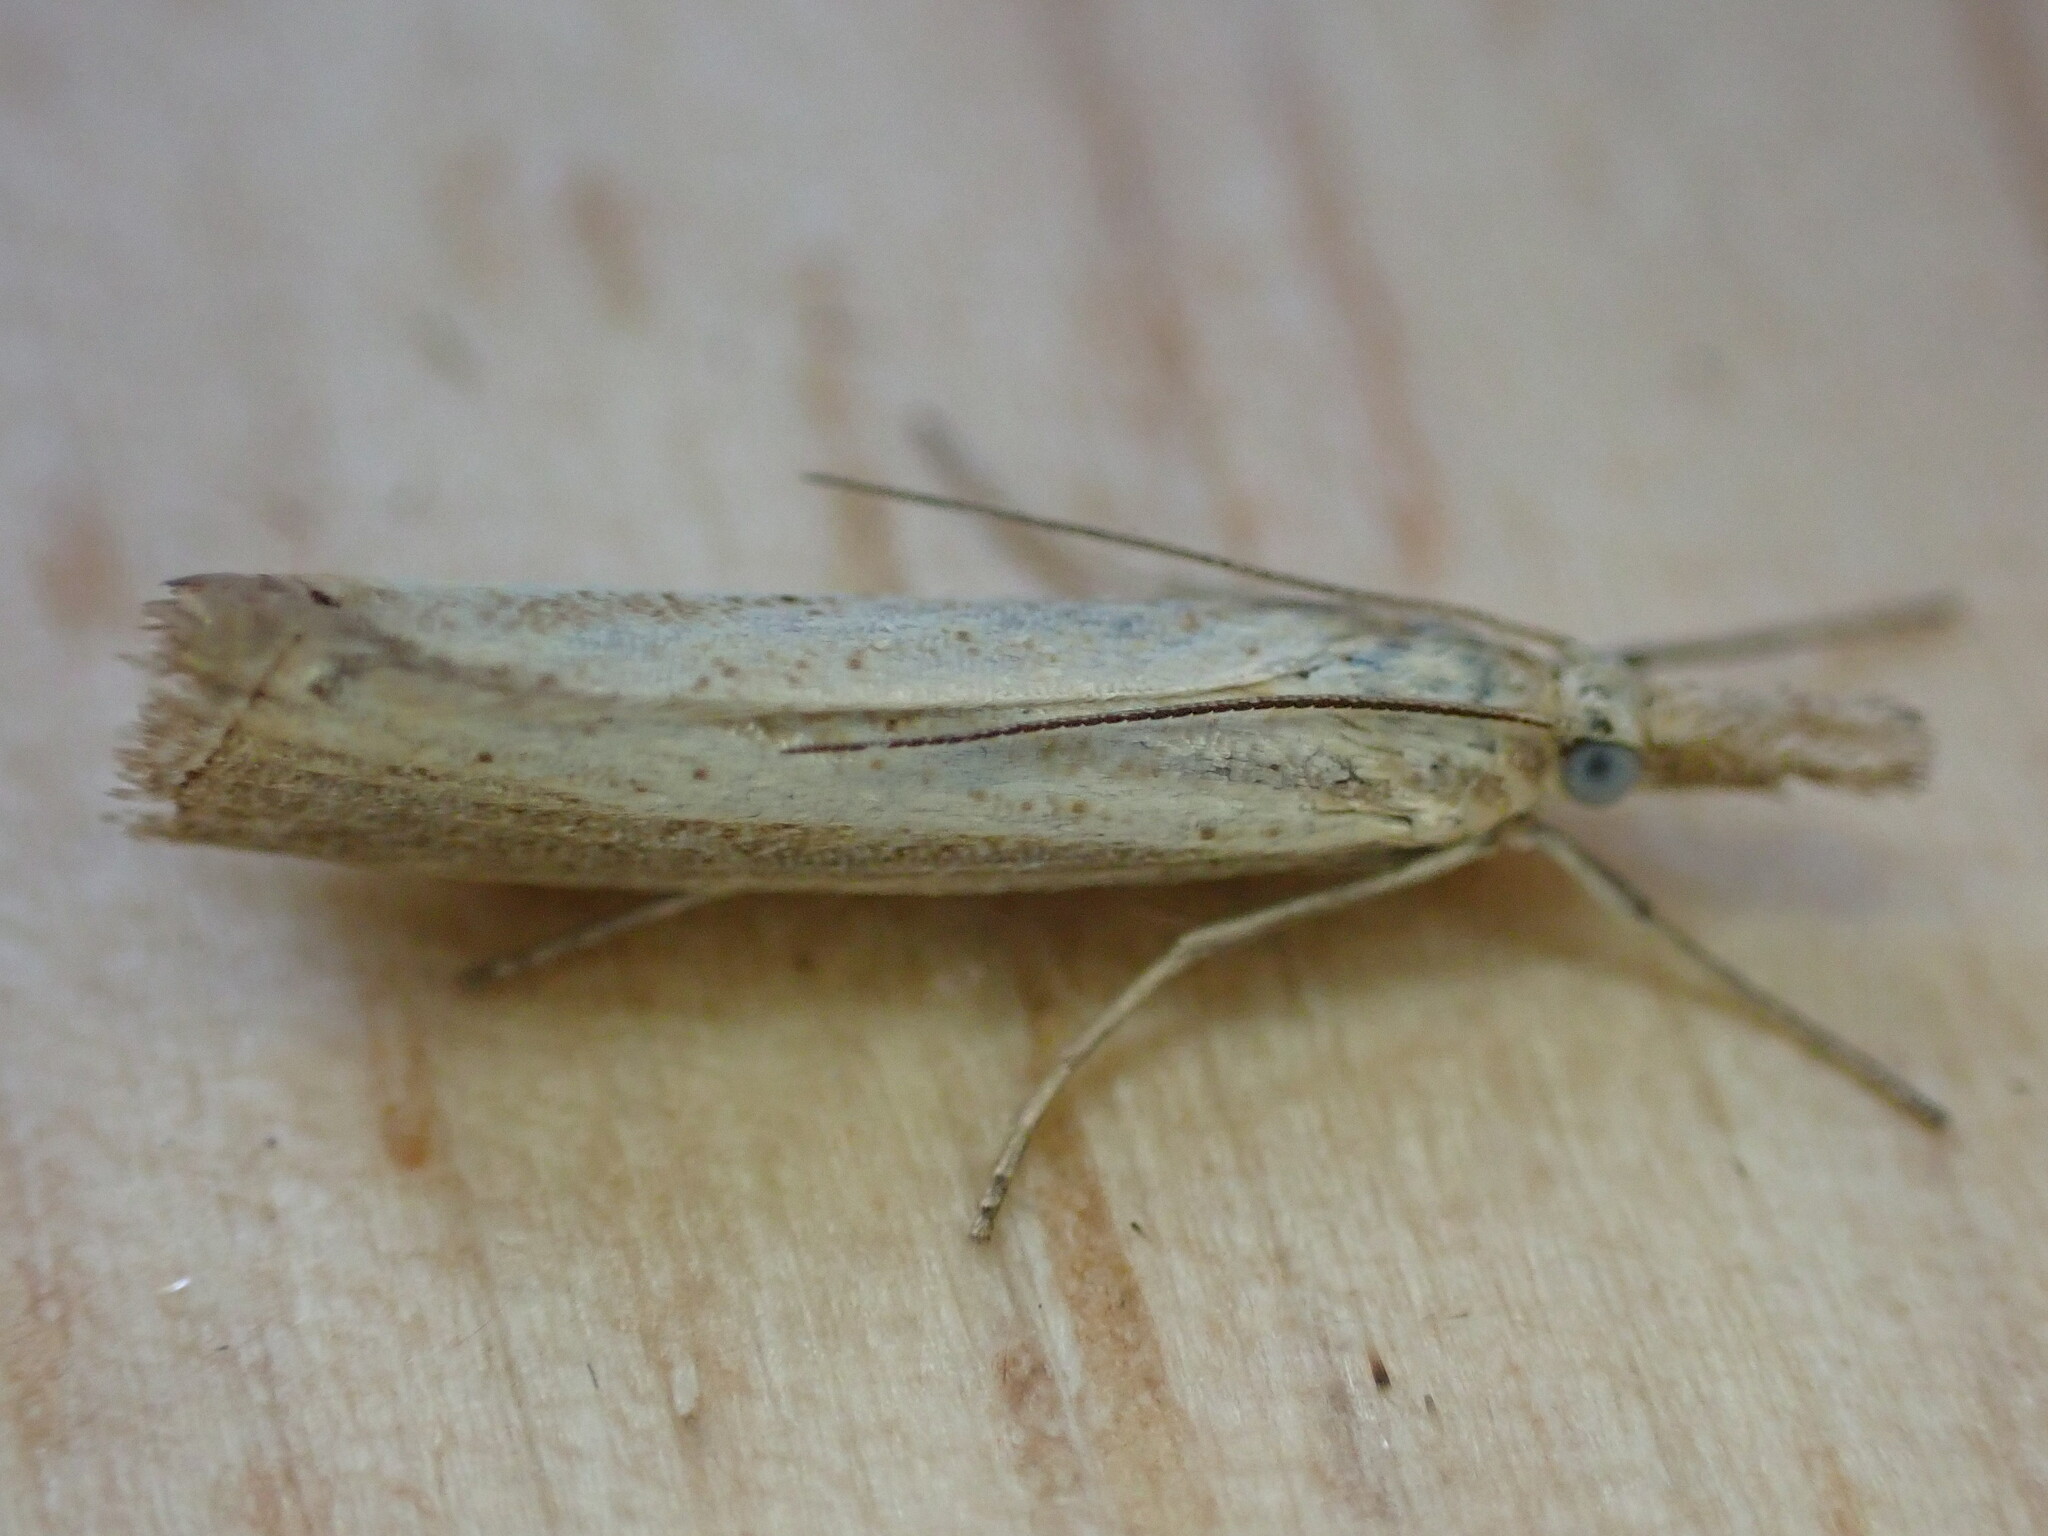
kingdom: Animalia
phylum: Arthropoda
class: Insecta
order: Lepidoptera
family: Crambidae
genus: Agriphila
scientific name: Agriphila straminella
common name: Straw grass-veneer
